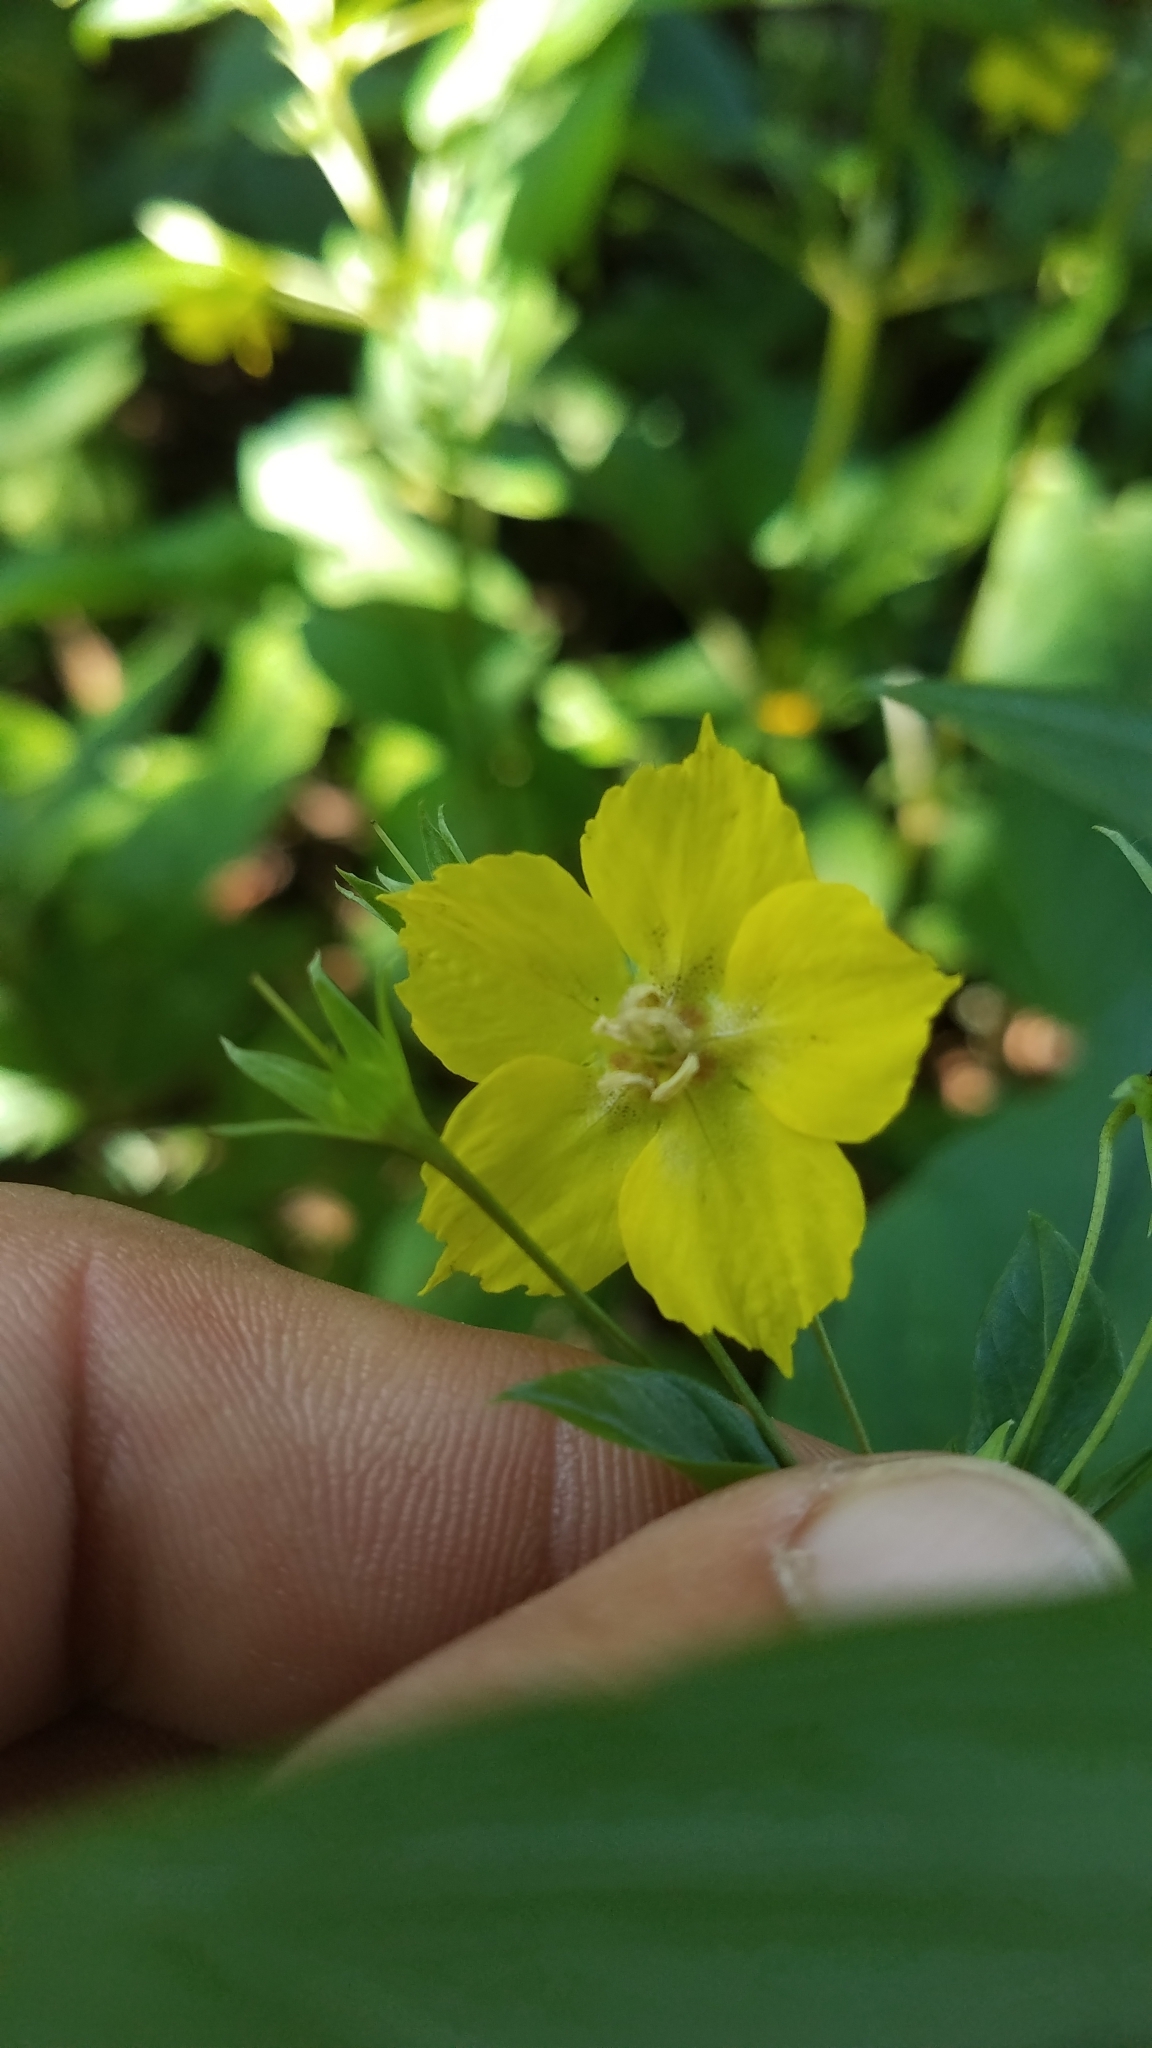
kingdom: Plantae
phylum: Tracheophyta
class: Magnoliopsida
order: Ericales
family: Primulaceae
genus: Lysimachia
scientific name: Lysimachia ciliata
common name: Fringed loosestrife
